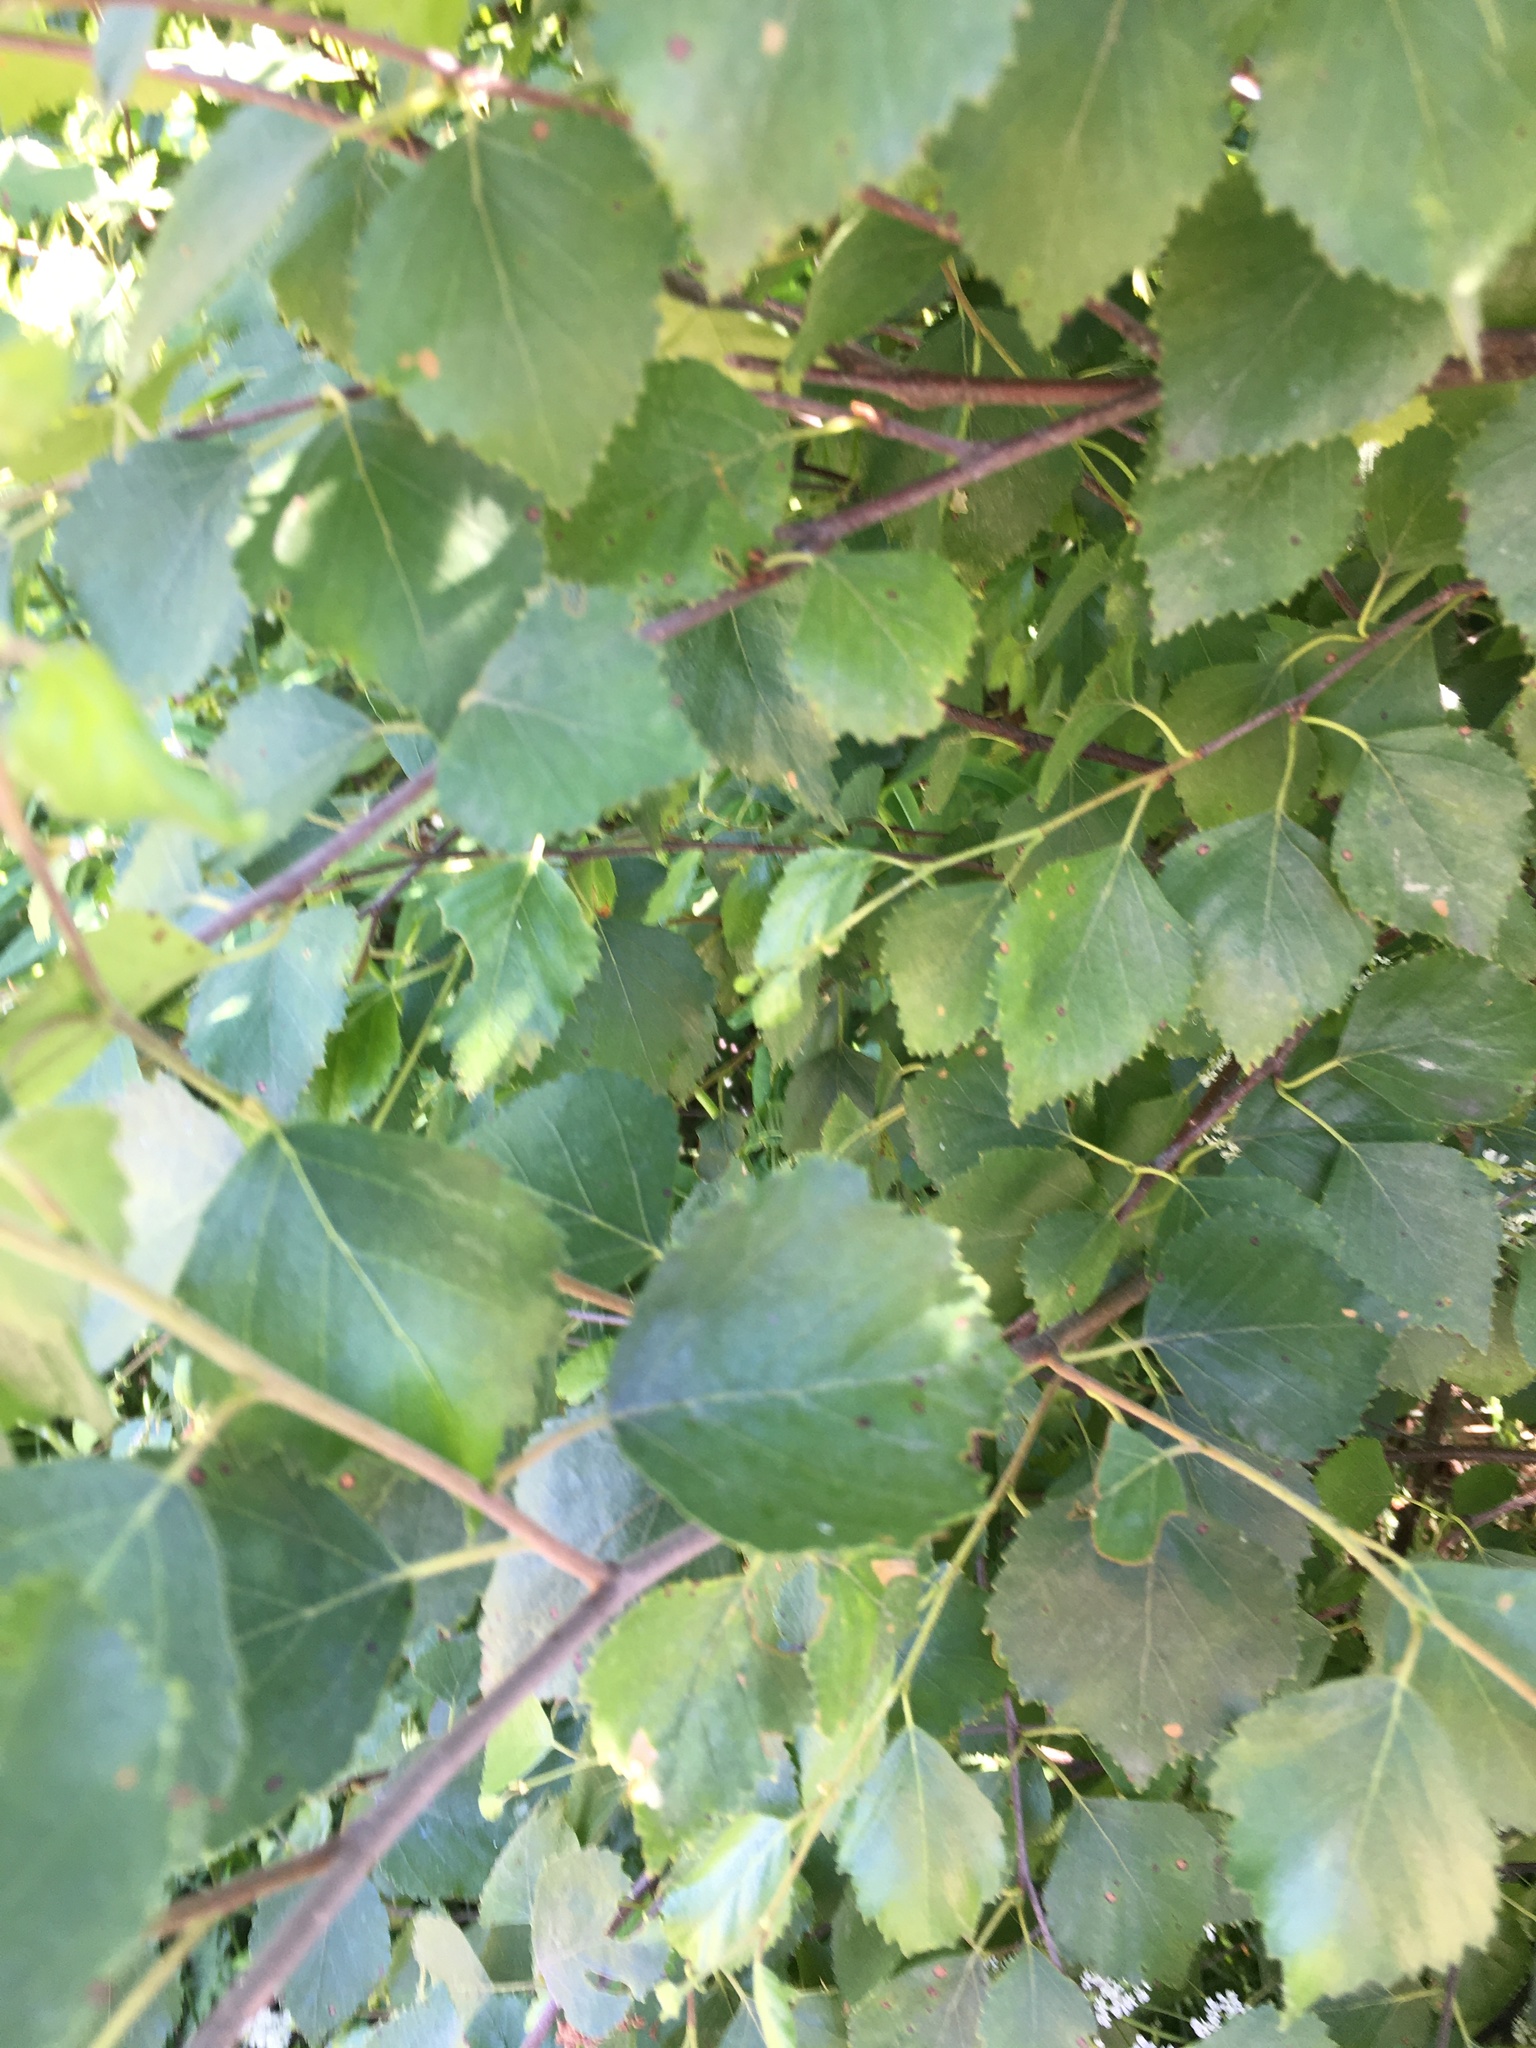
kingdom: Plantae
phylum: Tracheophyta
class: Magnoliopsida
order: Fagales
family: Betulaceae
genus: Betula
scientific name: Betula pendula
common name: Silver birch
